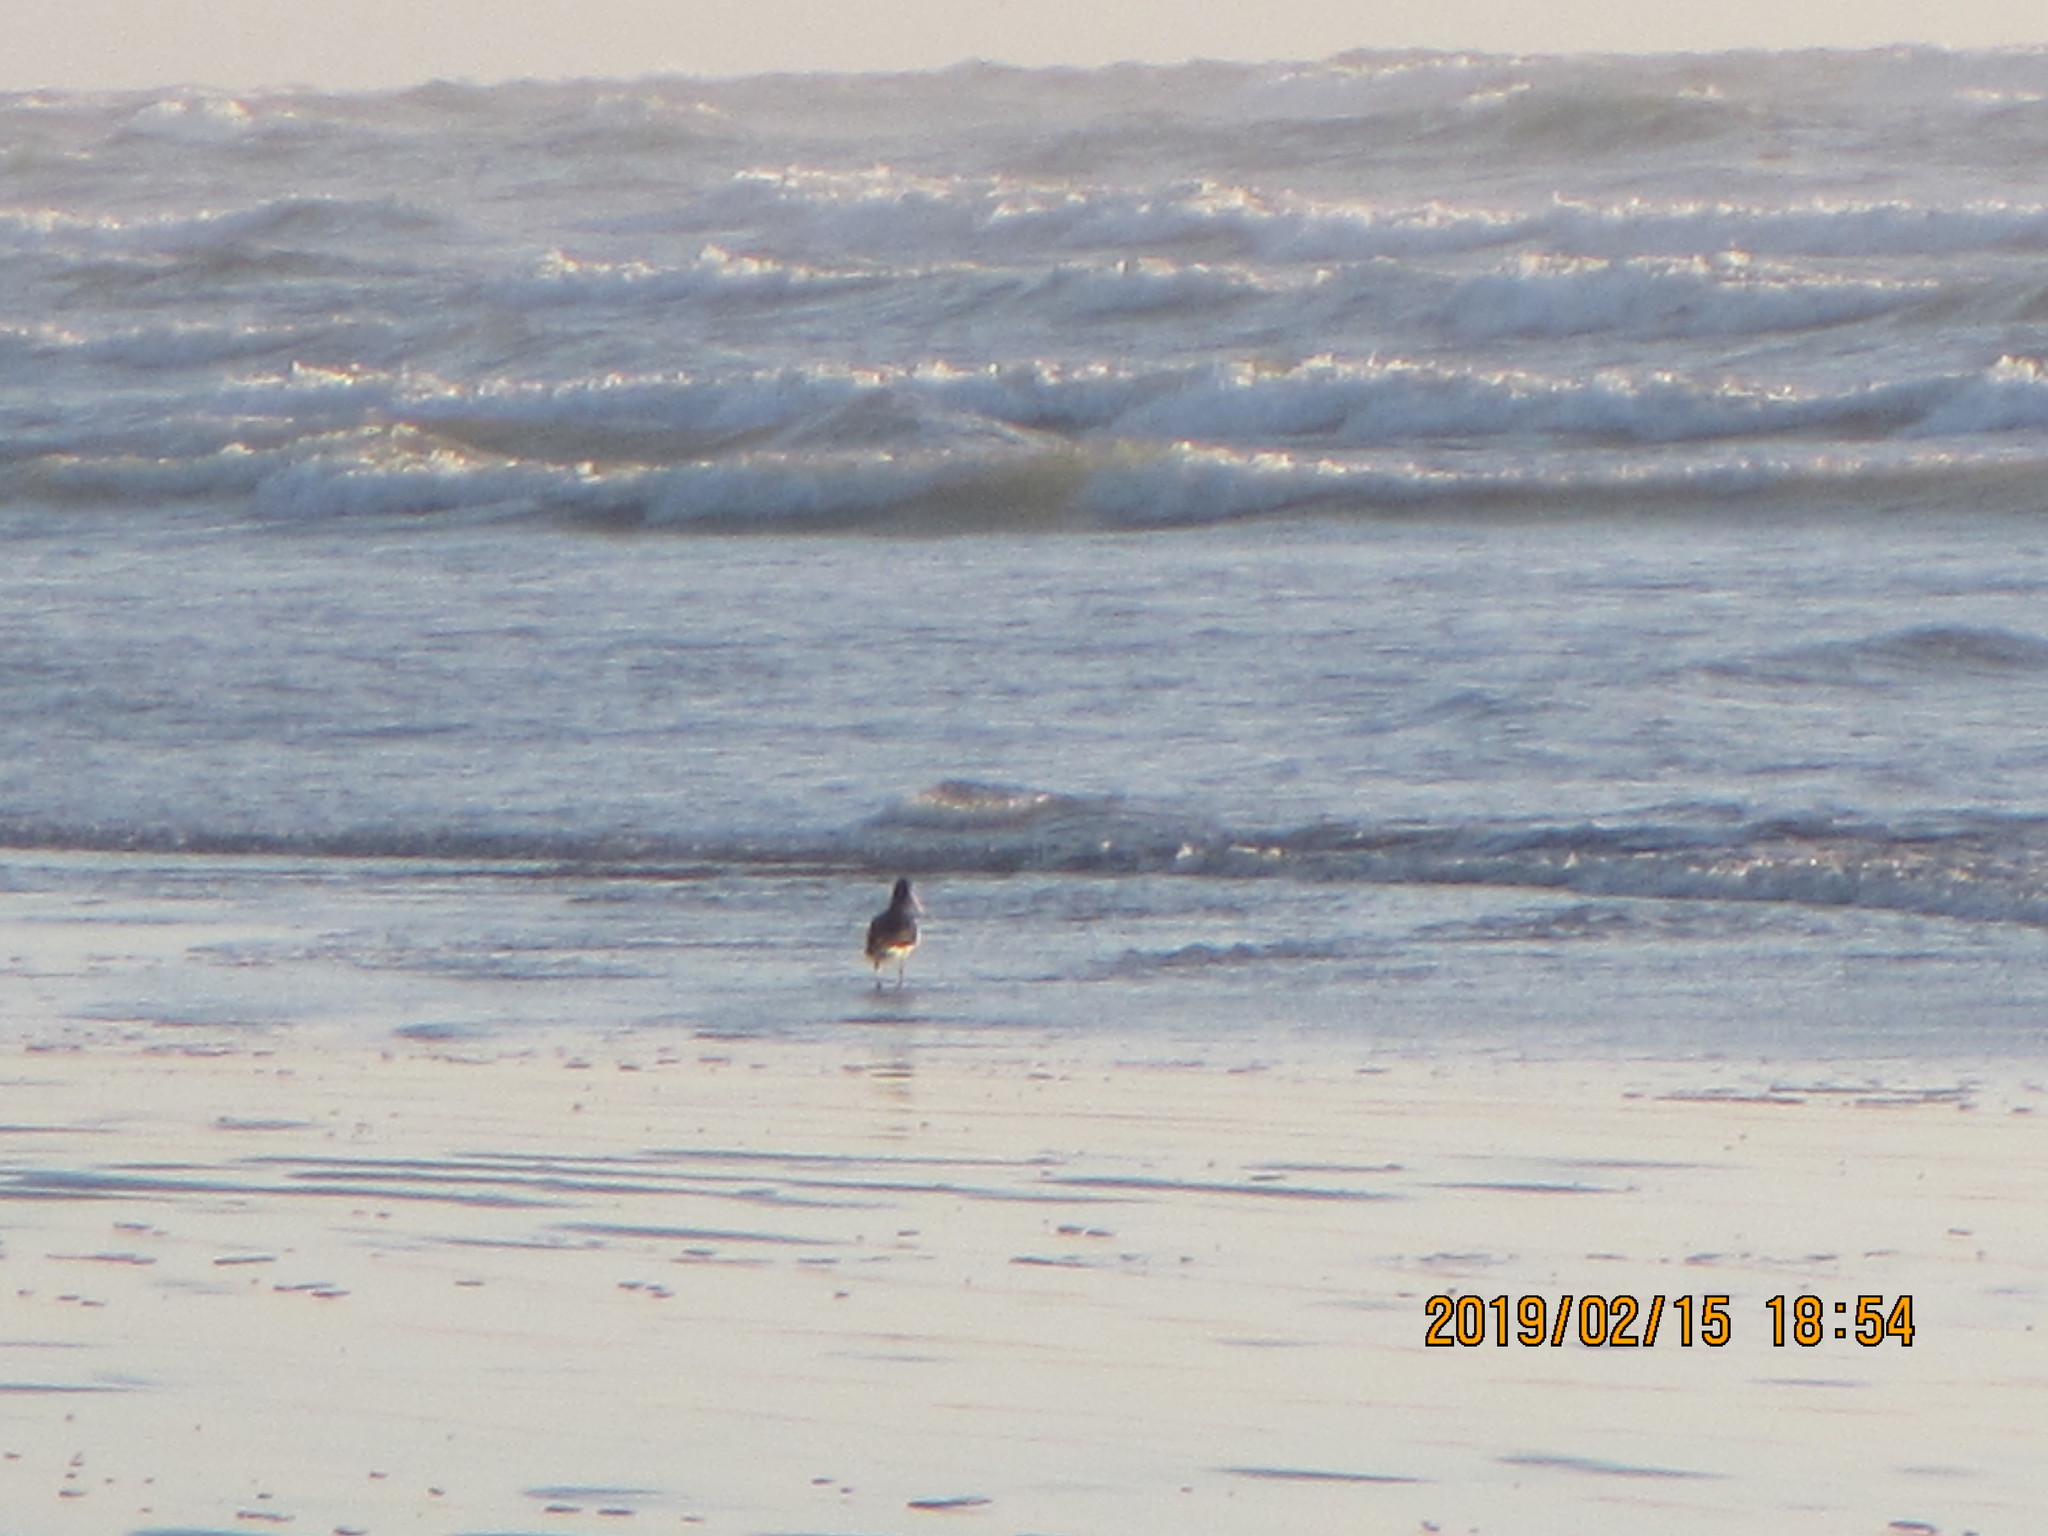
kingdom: Animalia
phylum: Chordata
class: Aves
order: Charadriiformes
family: Haematopodidae
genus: Haematopus
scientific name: Haematopus finschi
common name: South island oystercatcher
